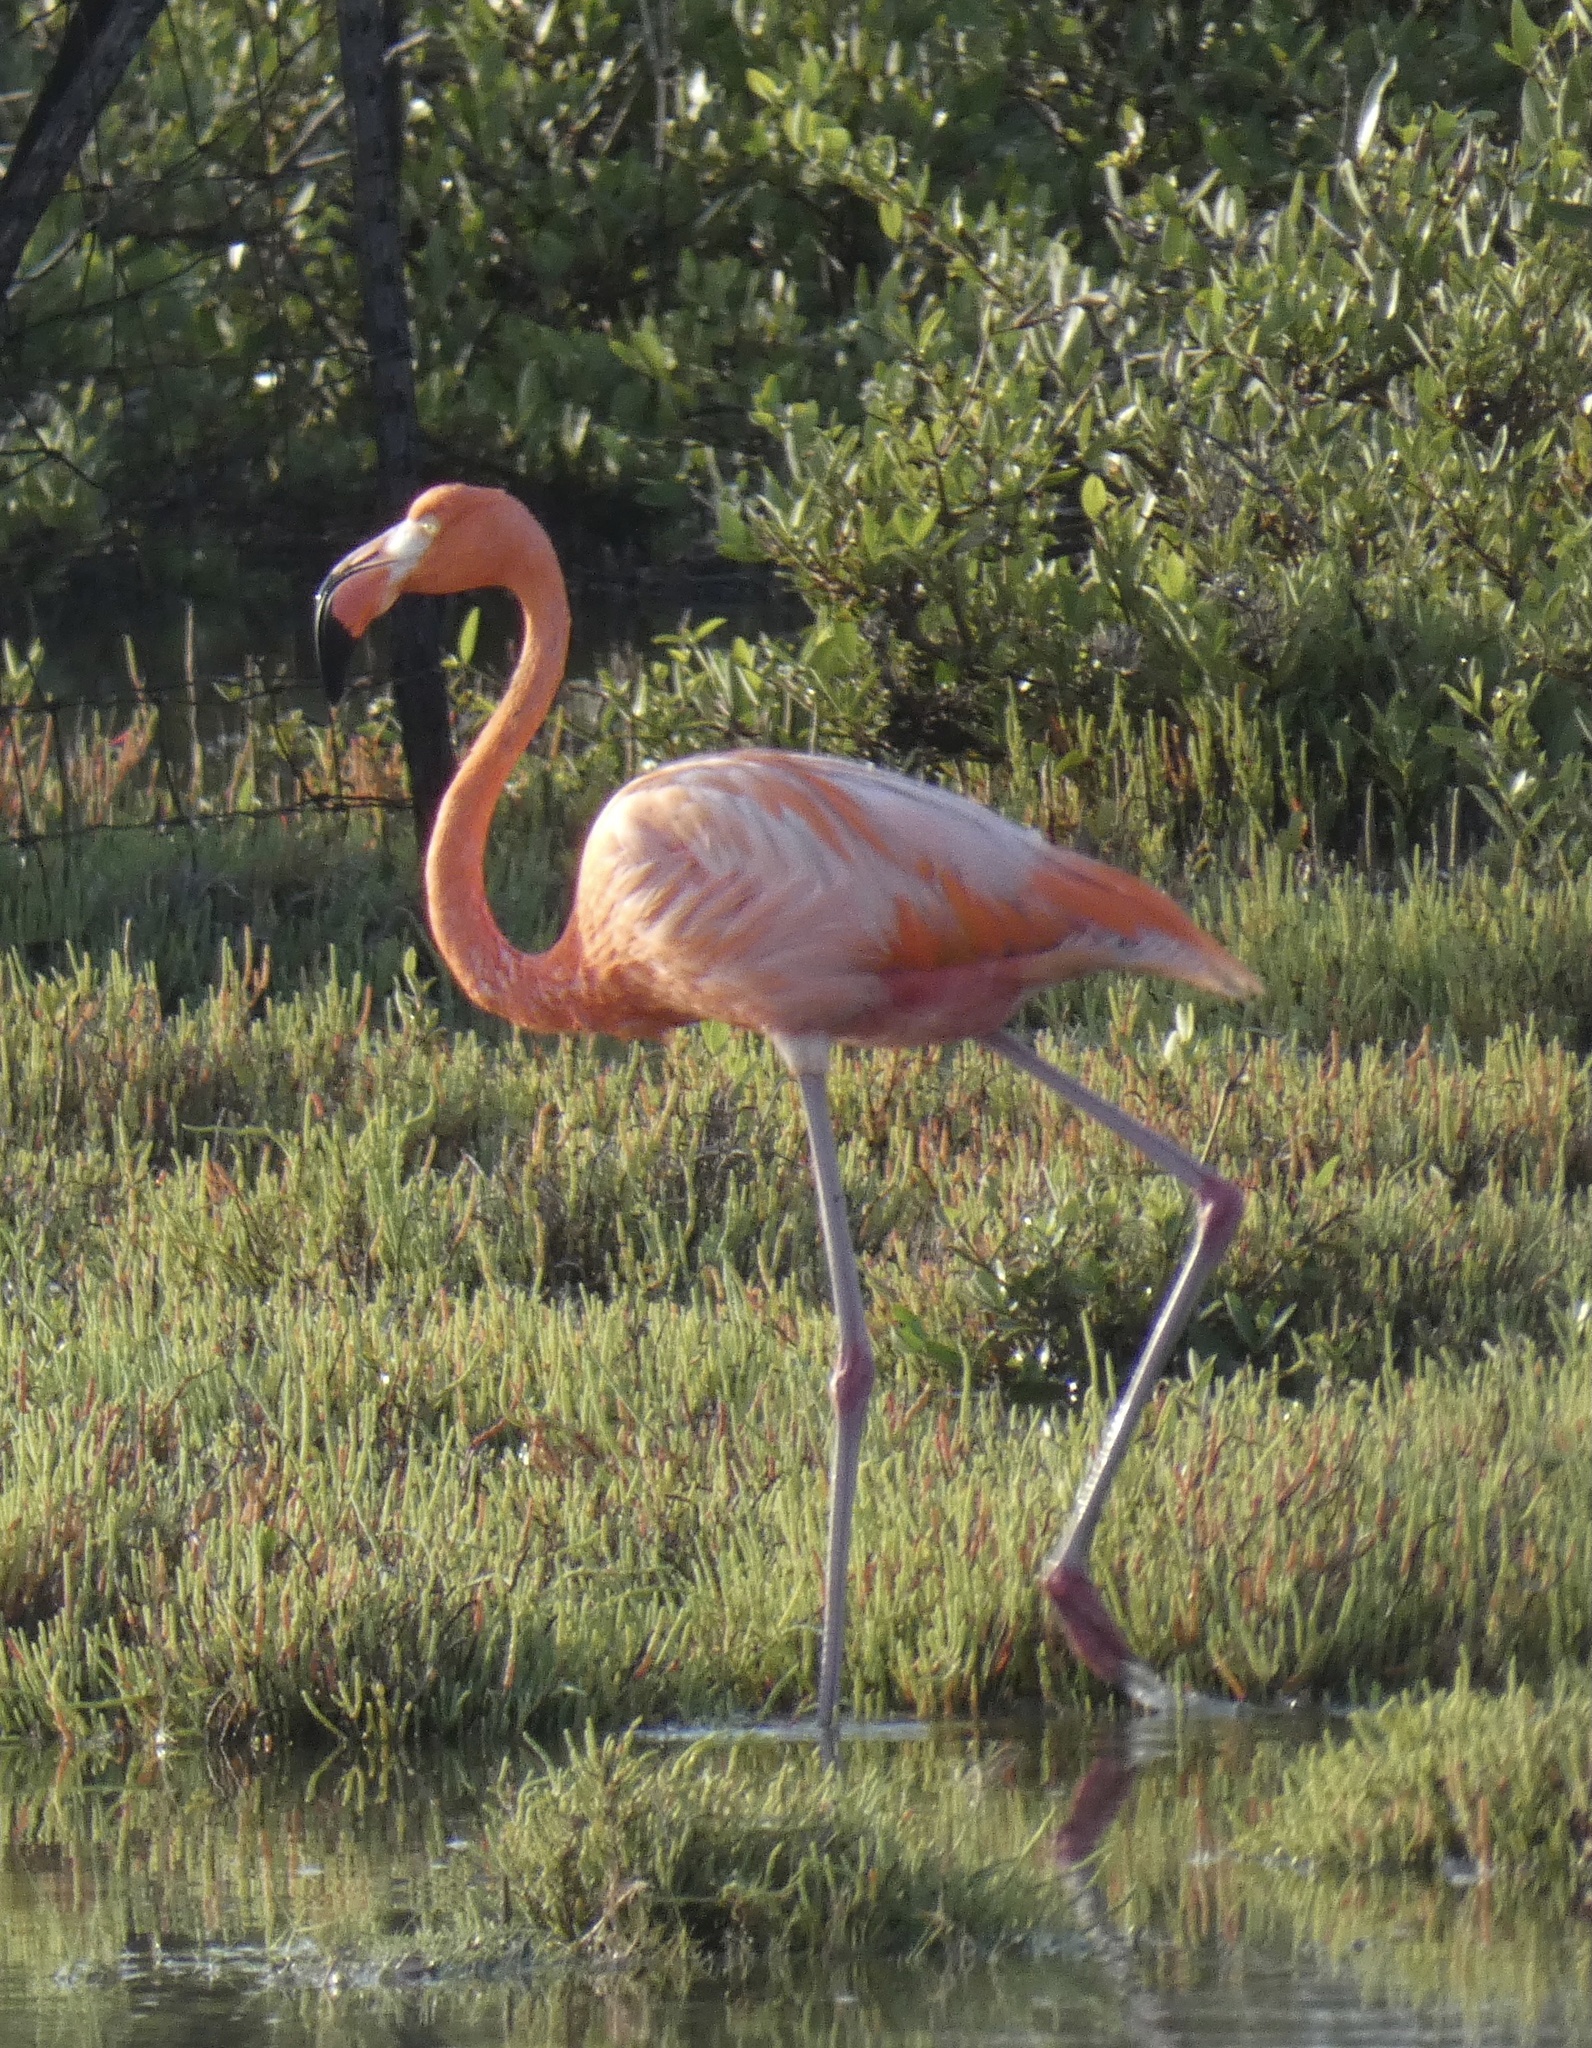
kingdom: Animalia
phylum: Chordata
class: Aves
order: Phoenicopteriformes
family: Phoenicopteridae
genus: Phoenicopterus
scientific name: Phoenicopterus ruber
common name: American flamingo
